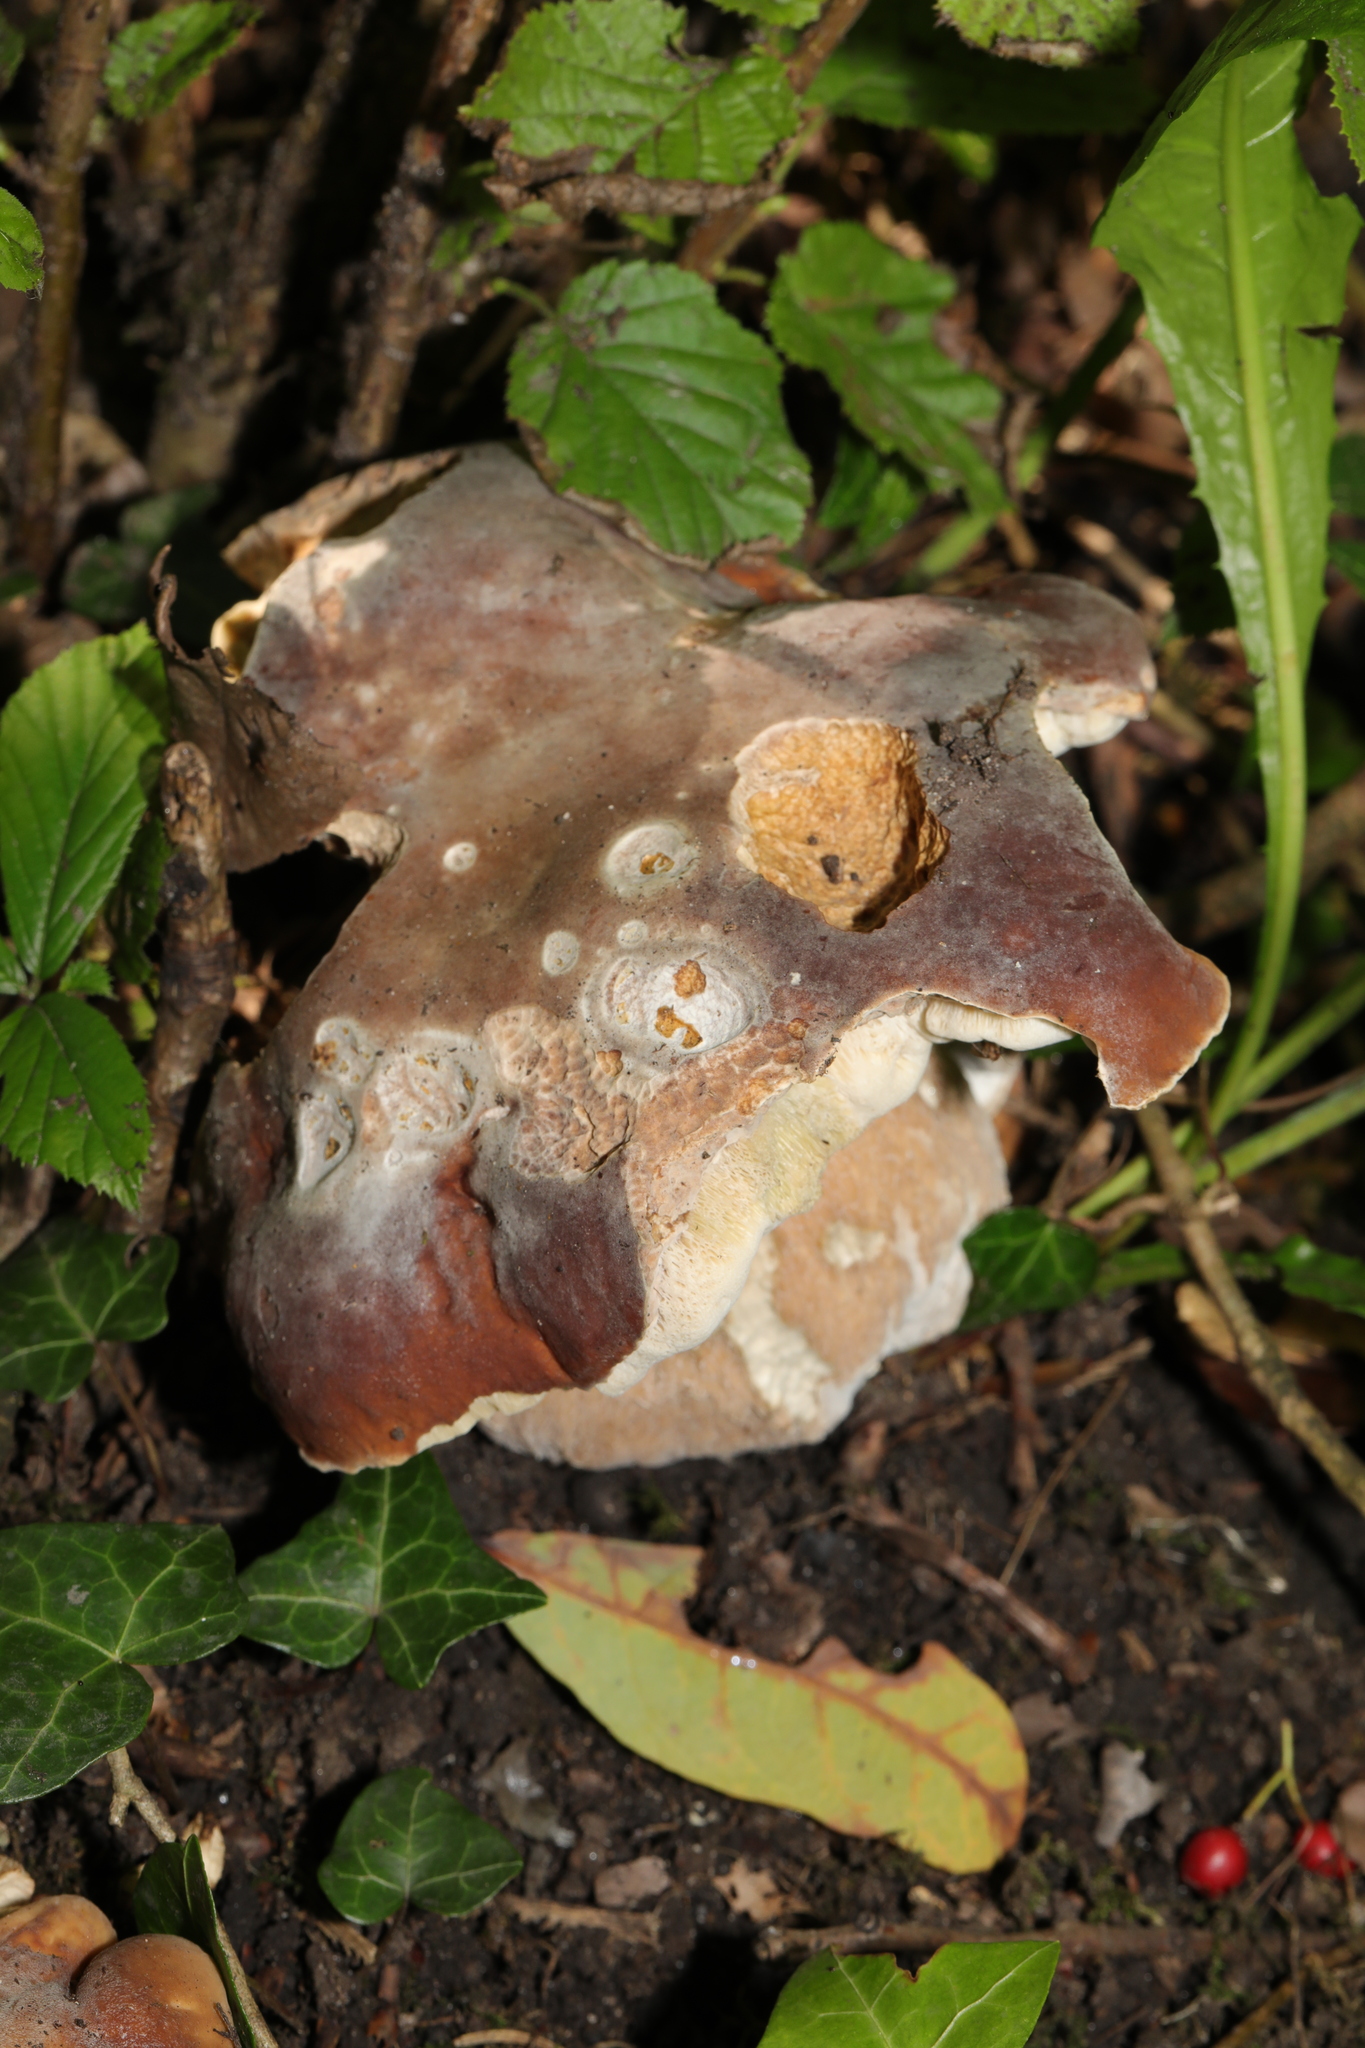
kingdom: Fungi
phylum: Basidiomycota
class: Agaricomycetes
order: Boletales
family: Boletaceae
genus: Boletus
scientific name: Boletus reticulatus
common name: Summer bolete
